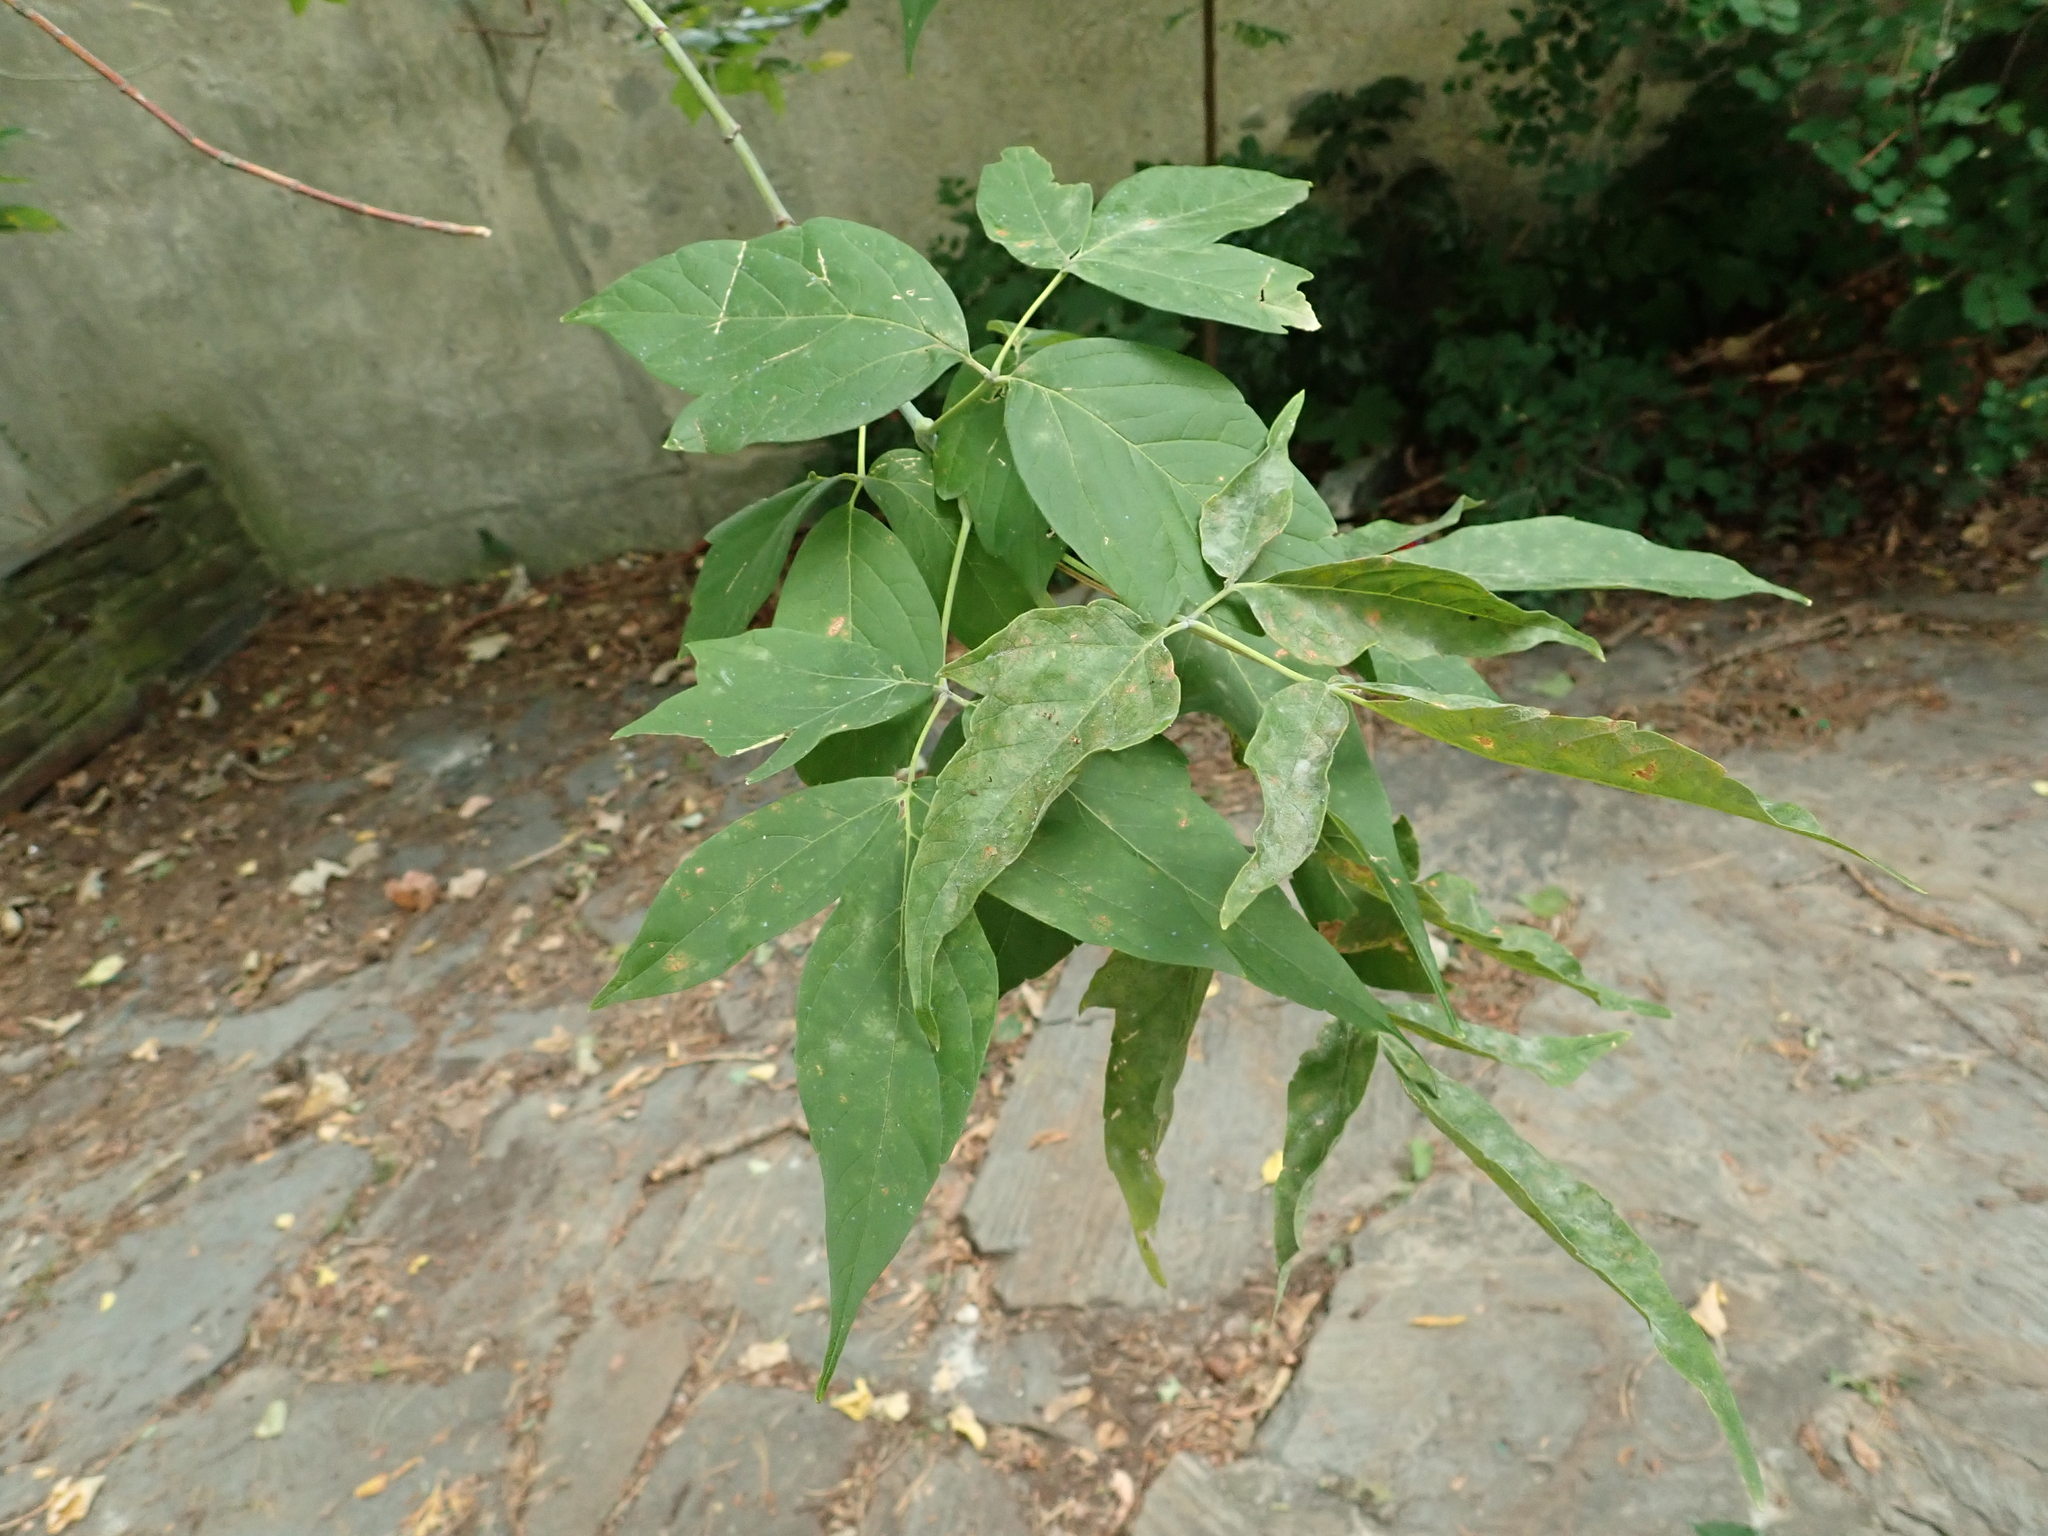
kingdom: Plantae
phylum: Tracheophyta
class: Magnoliopsida
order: Sapindales
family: Sapindaceae
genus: Acer
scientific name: Acer negundo
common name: Ashleaf maple
